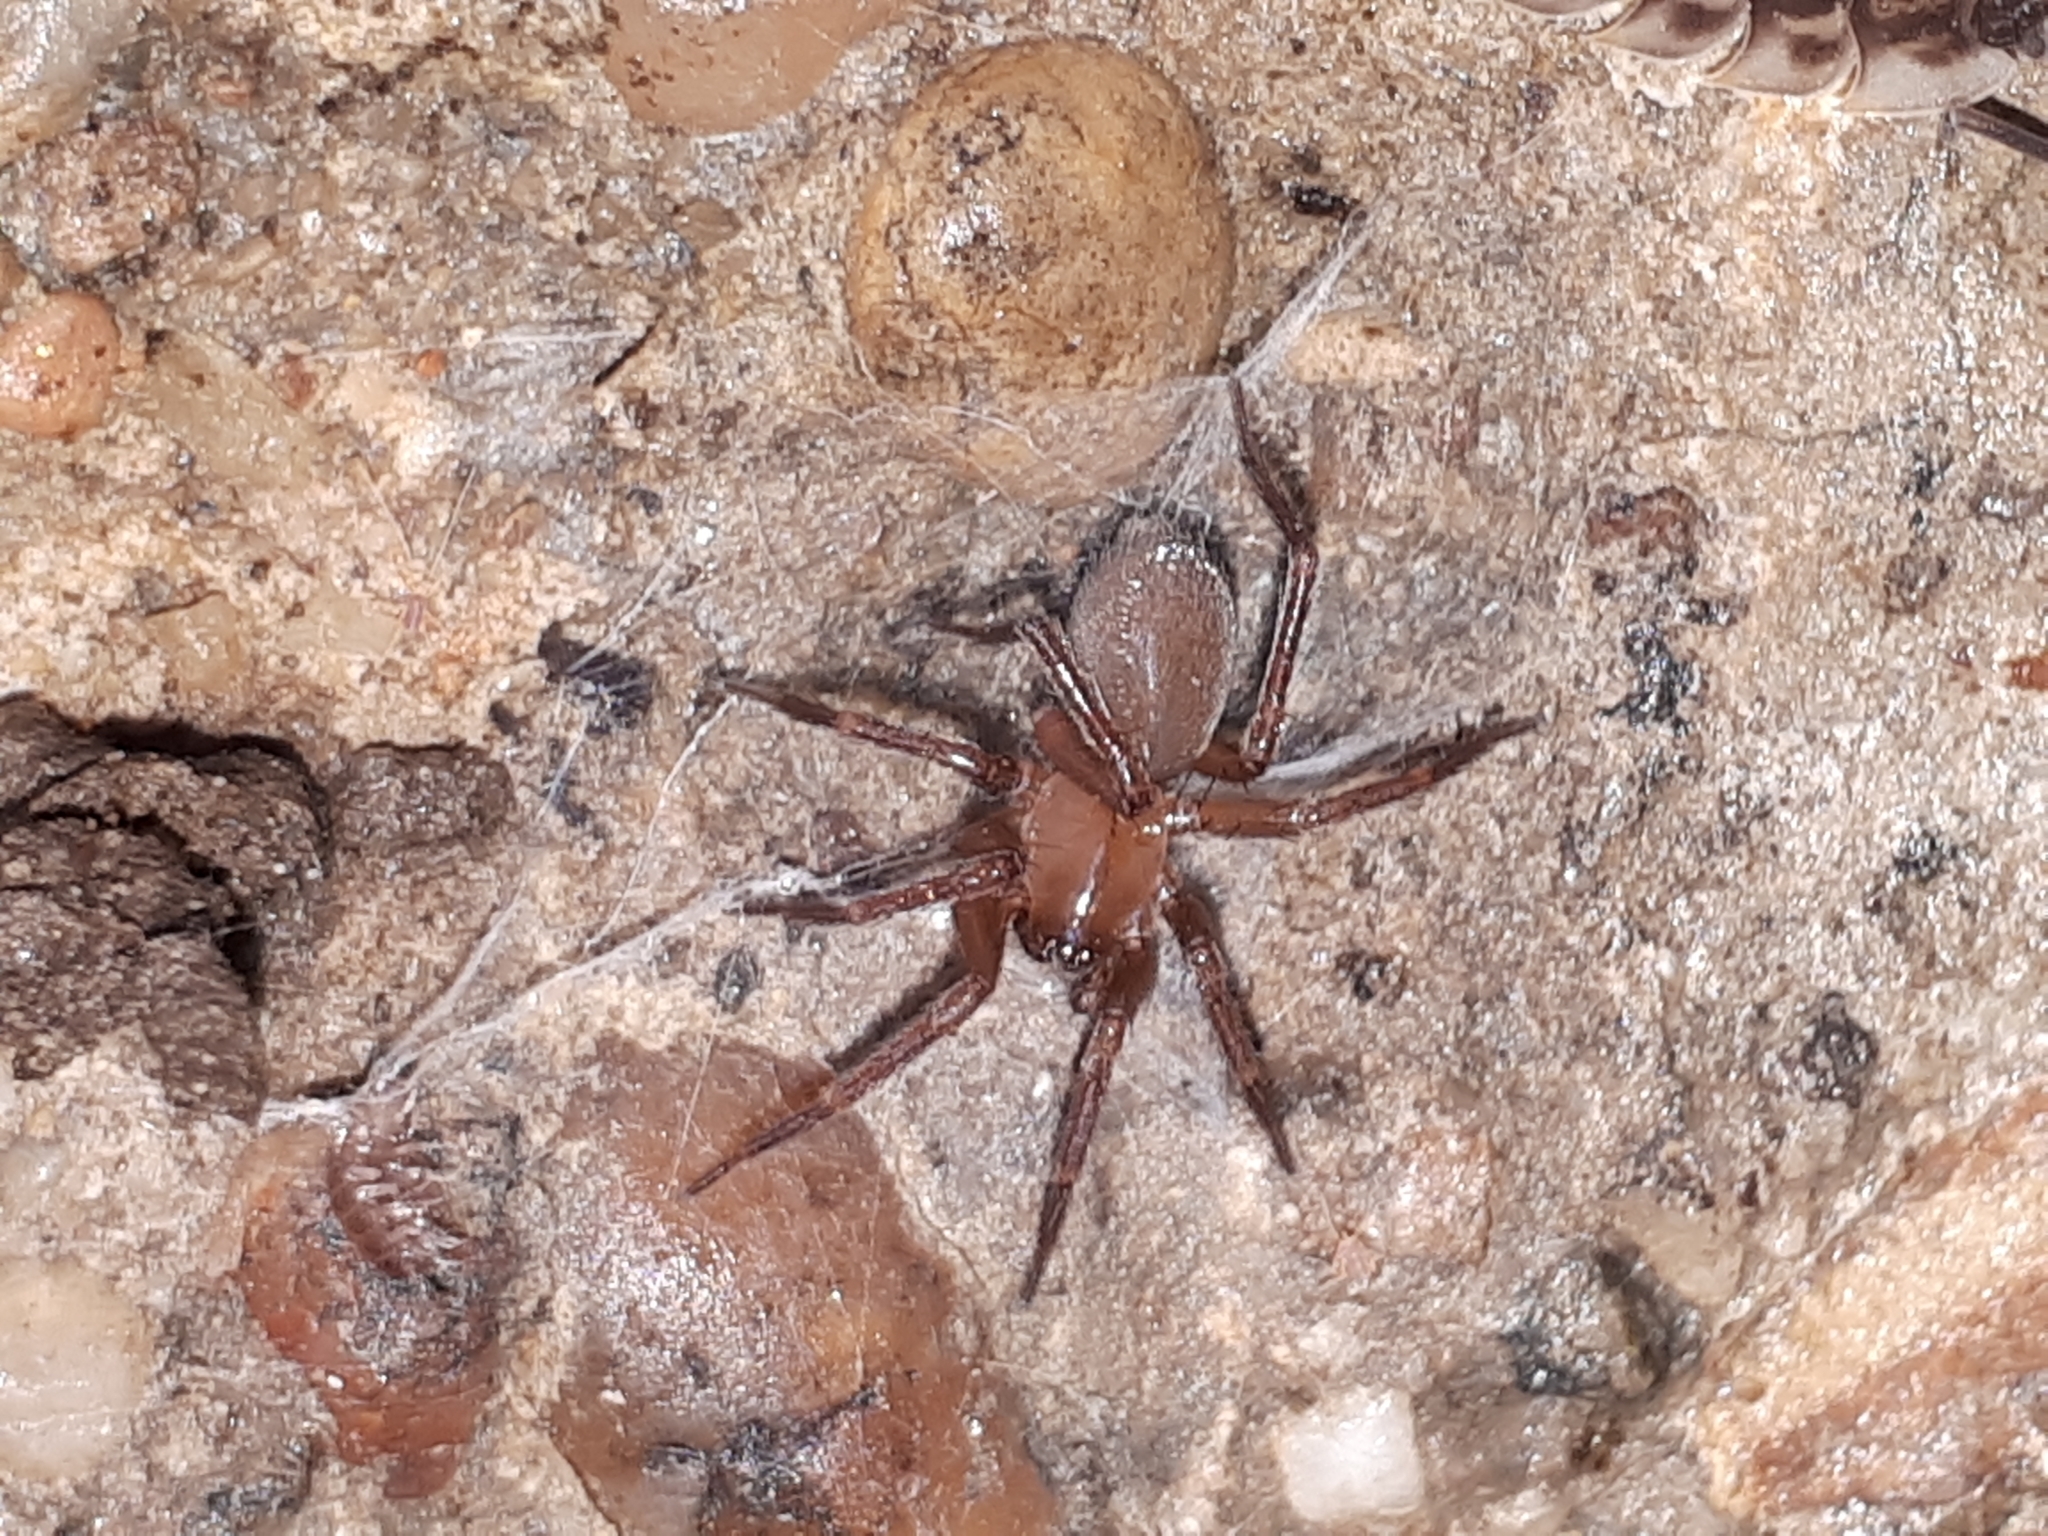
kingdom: Animalia
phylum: Arthropoda
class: Arachnida
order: Araneae
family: Hahniidae
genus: Cicurina
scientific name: Cicurina cicur
